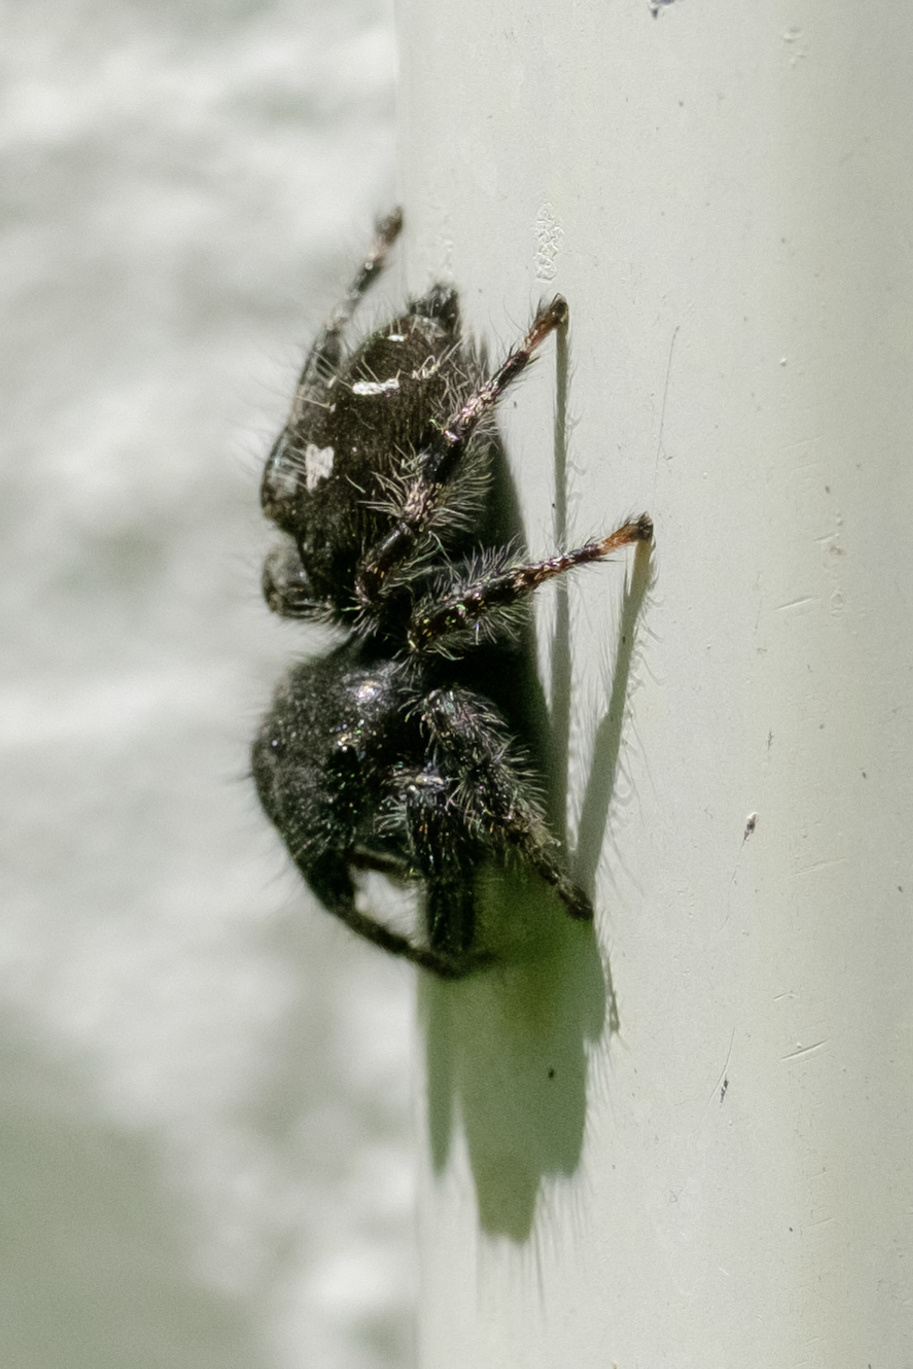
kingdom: Animalia
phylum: Arthropoda
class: Arachnida
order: Araneae
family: Salticidae
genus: Phidippus
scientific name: Phidippus audax
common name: Bold jumper
